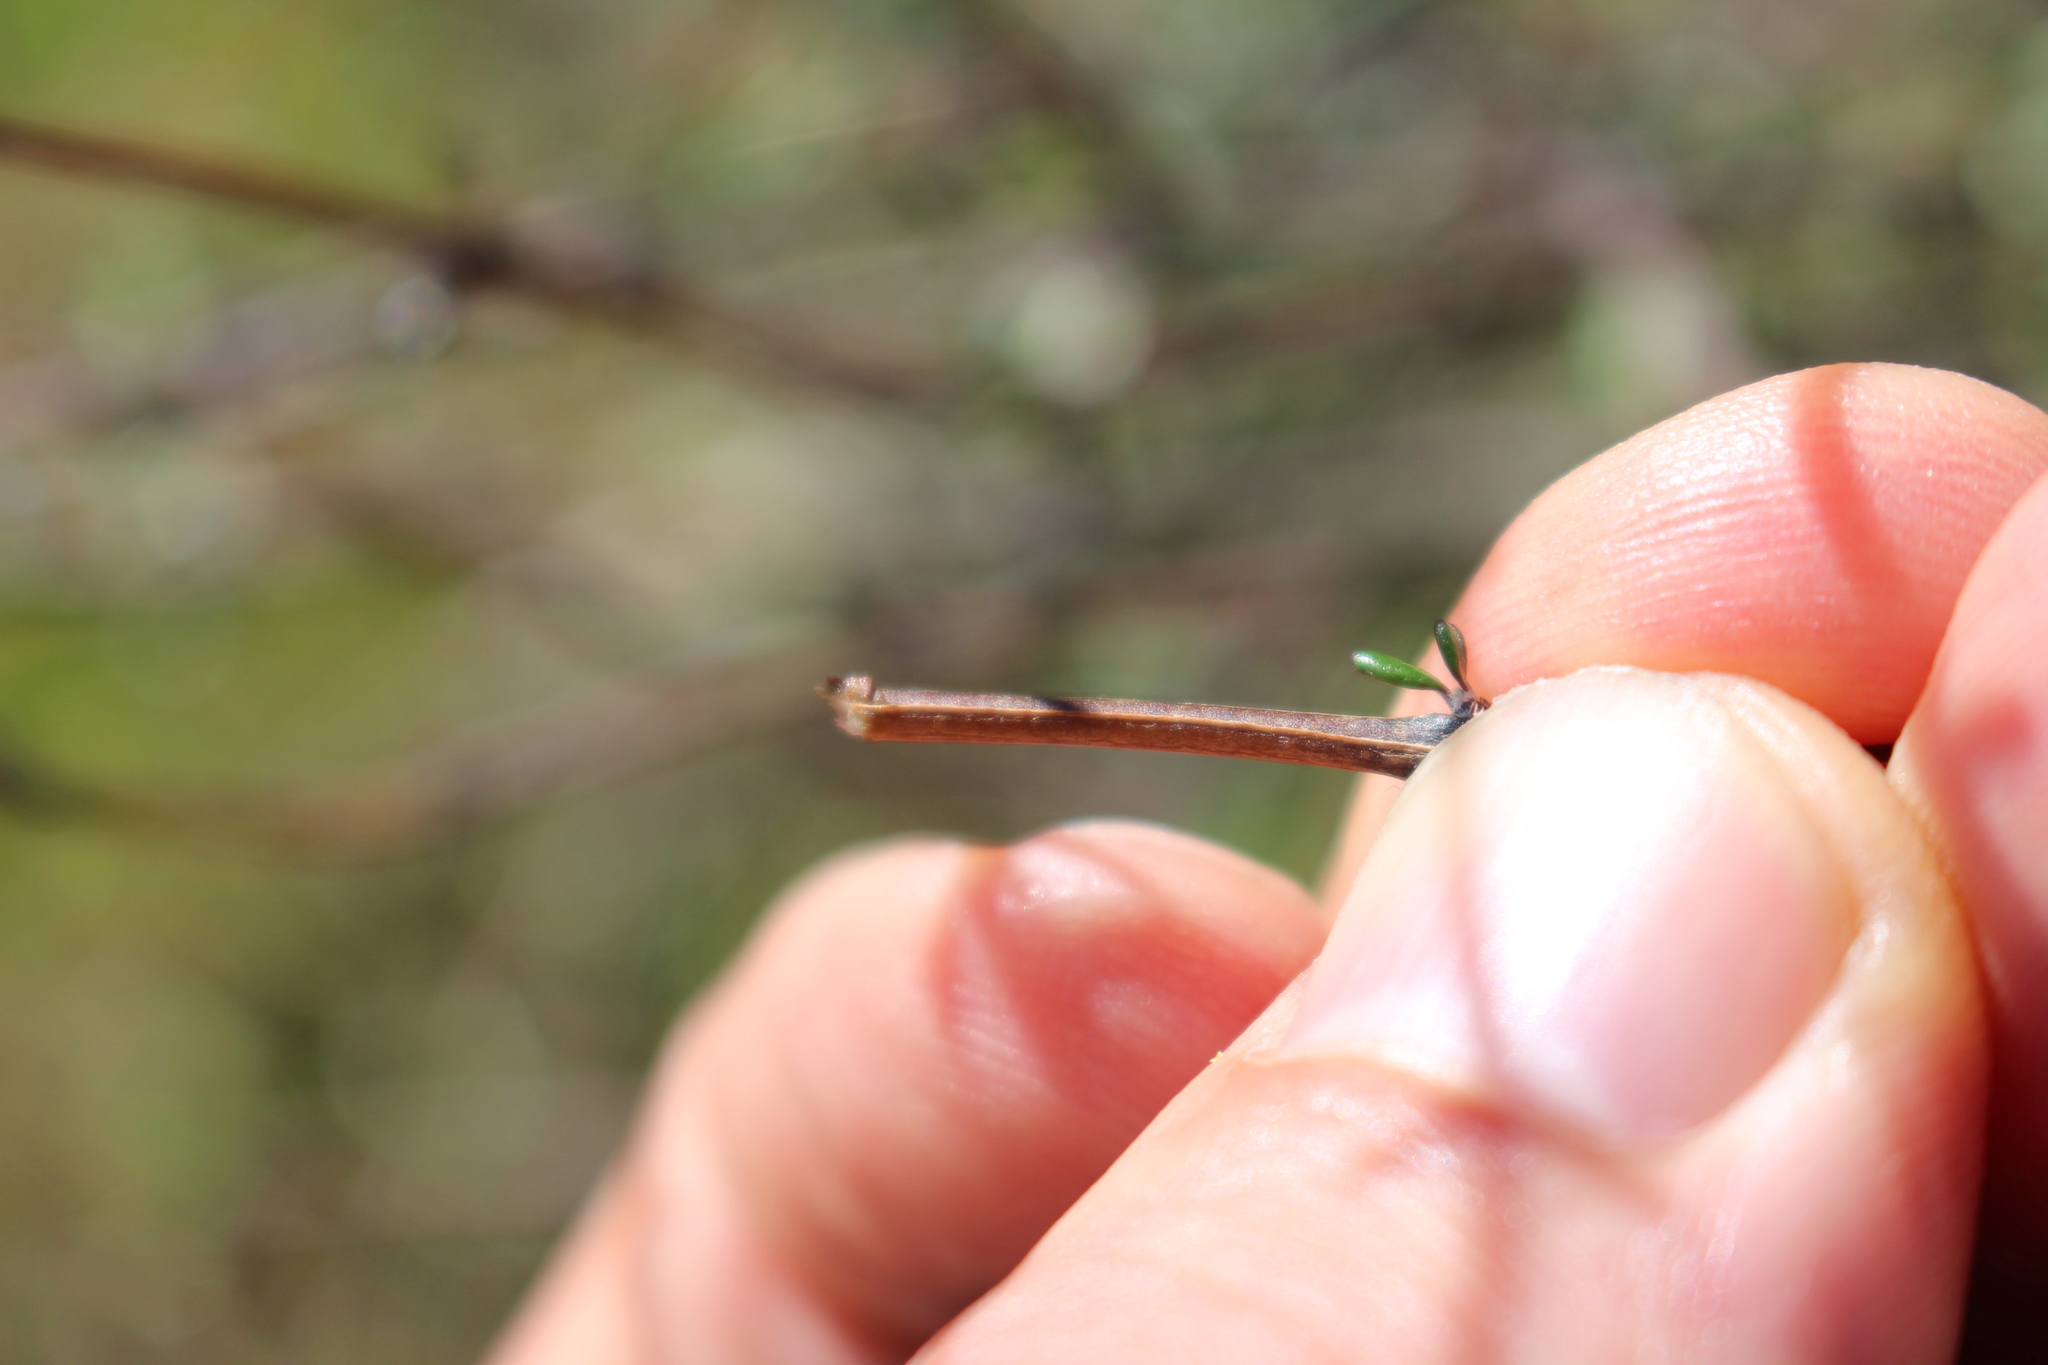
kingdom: Plantae
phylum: Tracheophyta
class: Magnoliopsida
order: Asterales
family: Asteraceae
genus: Olearia
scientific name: Olearia bullata
